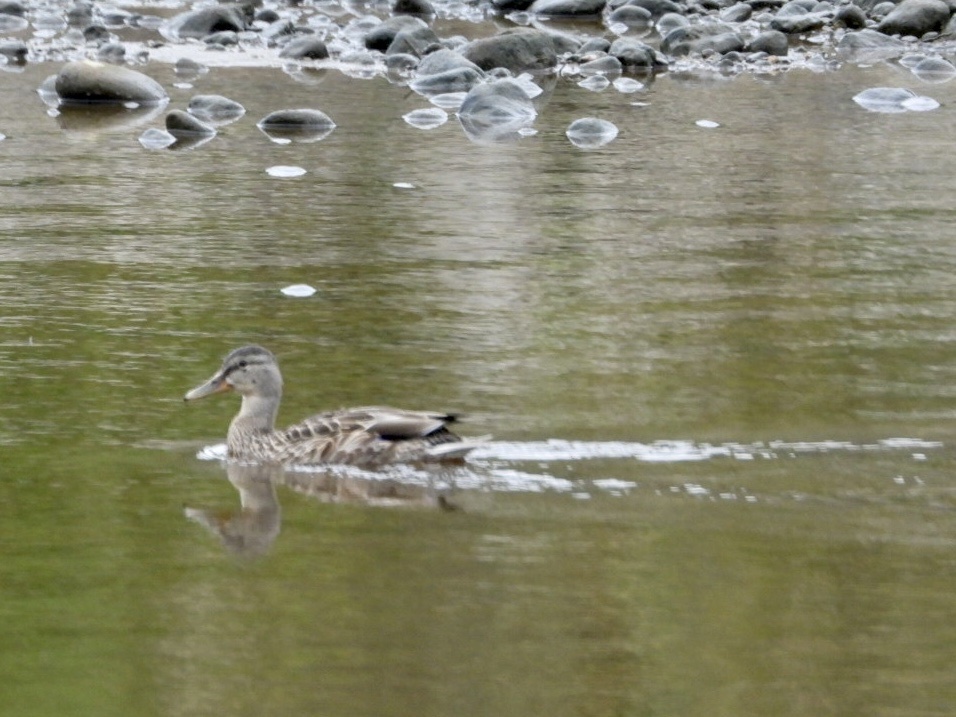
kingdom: Animalia
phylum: Chordata
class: Aves
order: Anseriformes
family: Anatidae
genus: Anas
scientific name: Anas platyrhynchos
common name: Mallard
